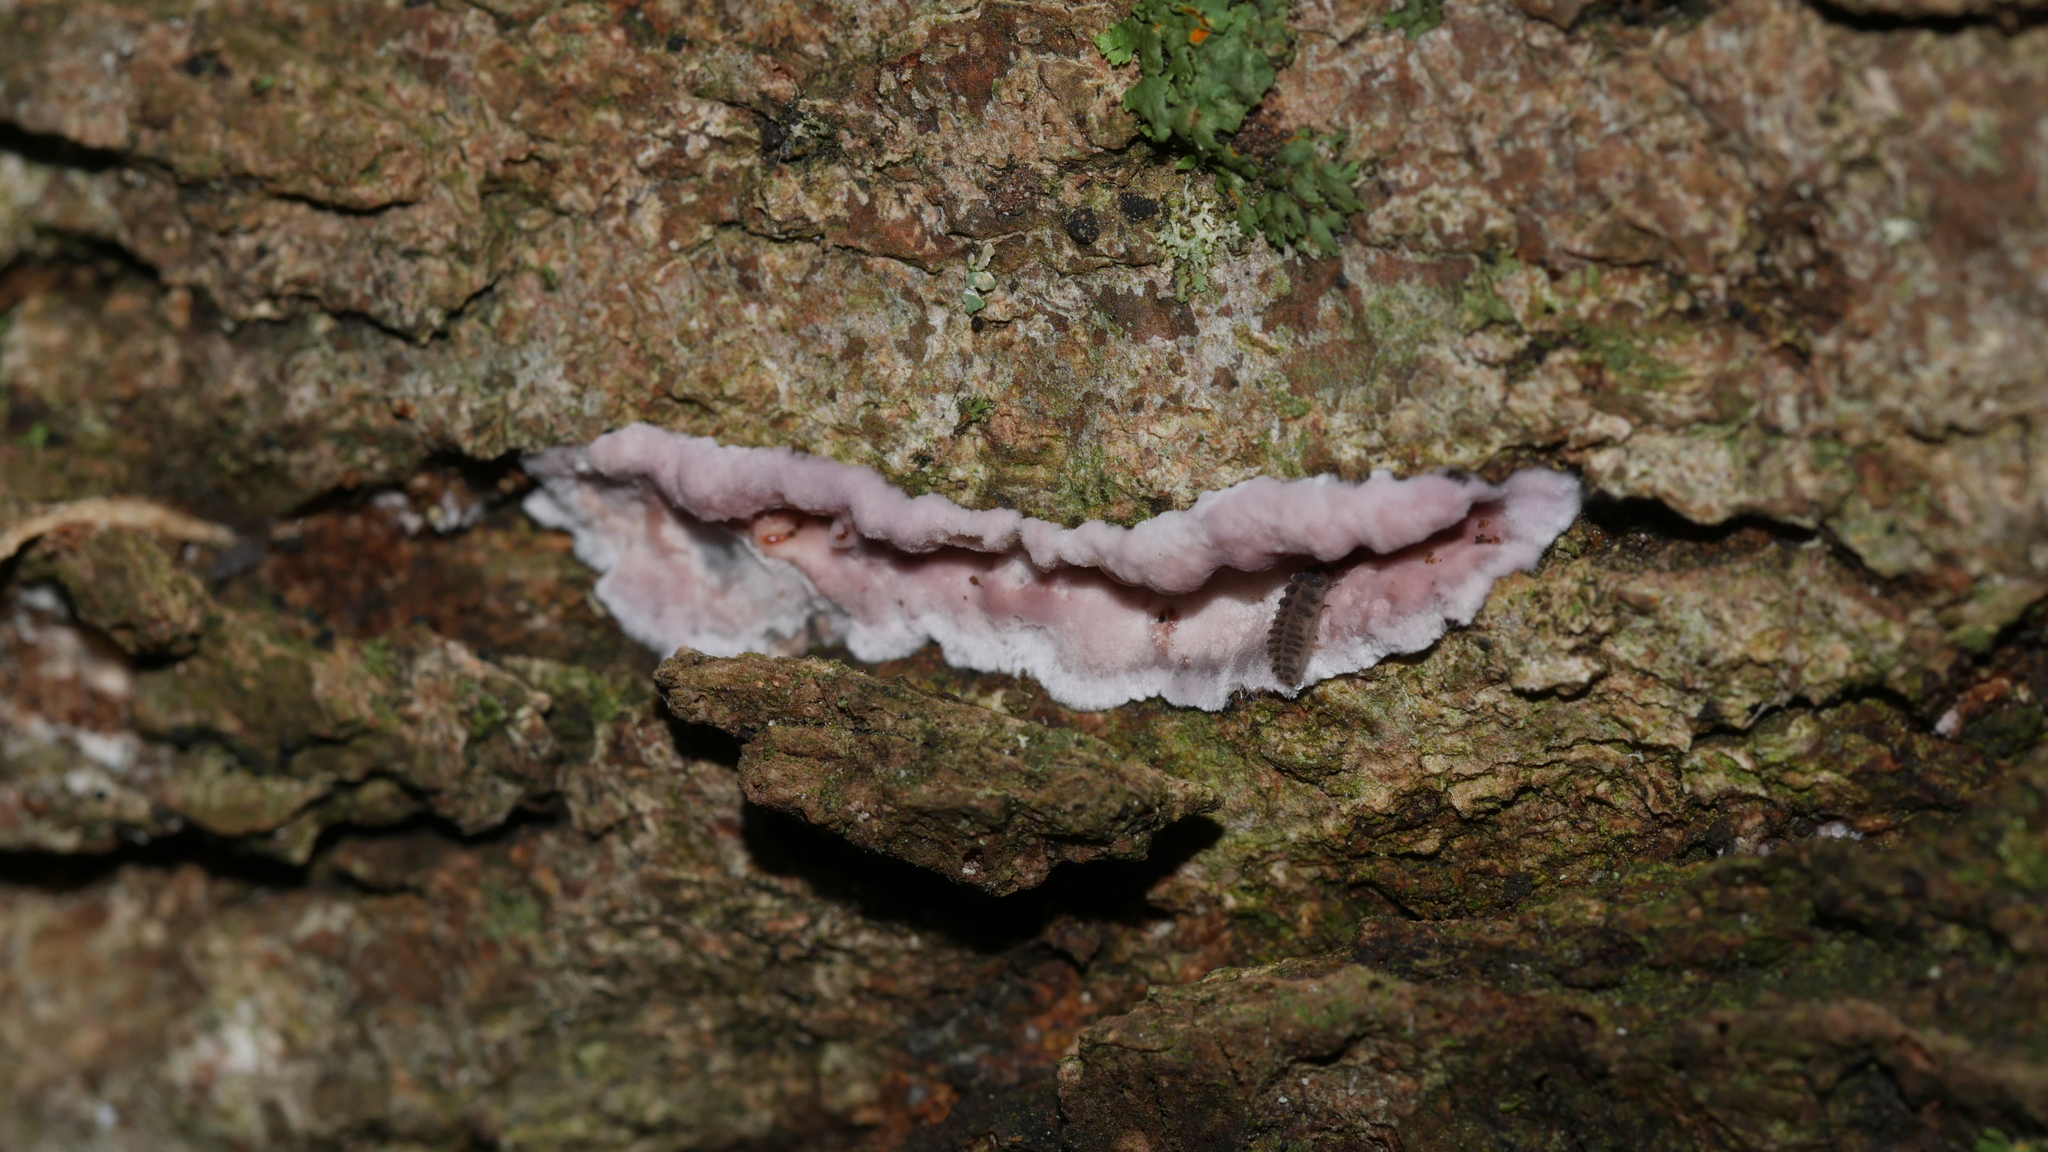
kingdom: Fungi
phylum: Basidiomycota
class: Agaricomycetes
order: Agaricales
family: Cyphellaceae
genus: Chondrostereum
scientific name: Chondrostereum purpureum
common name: Silver leaf disease
